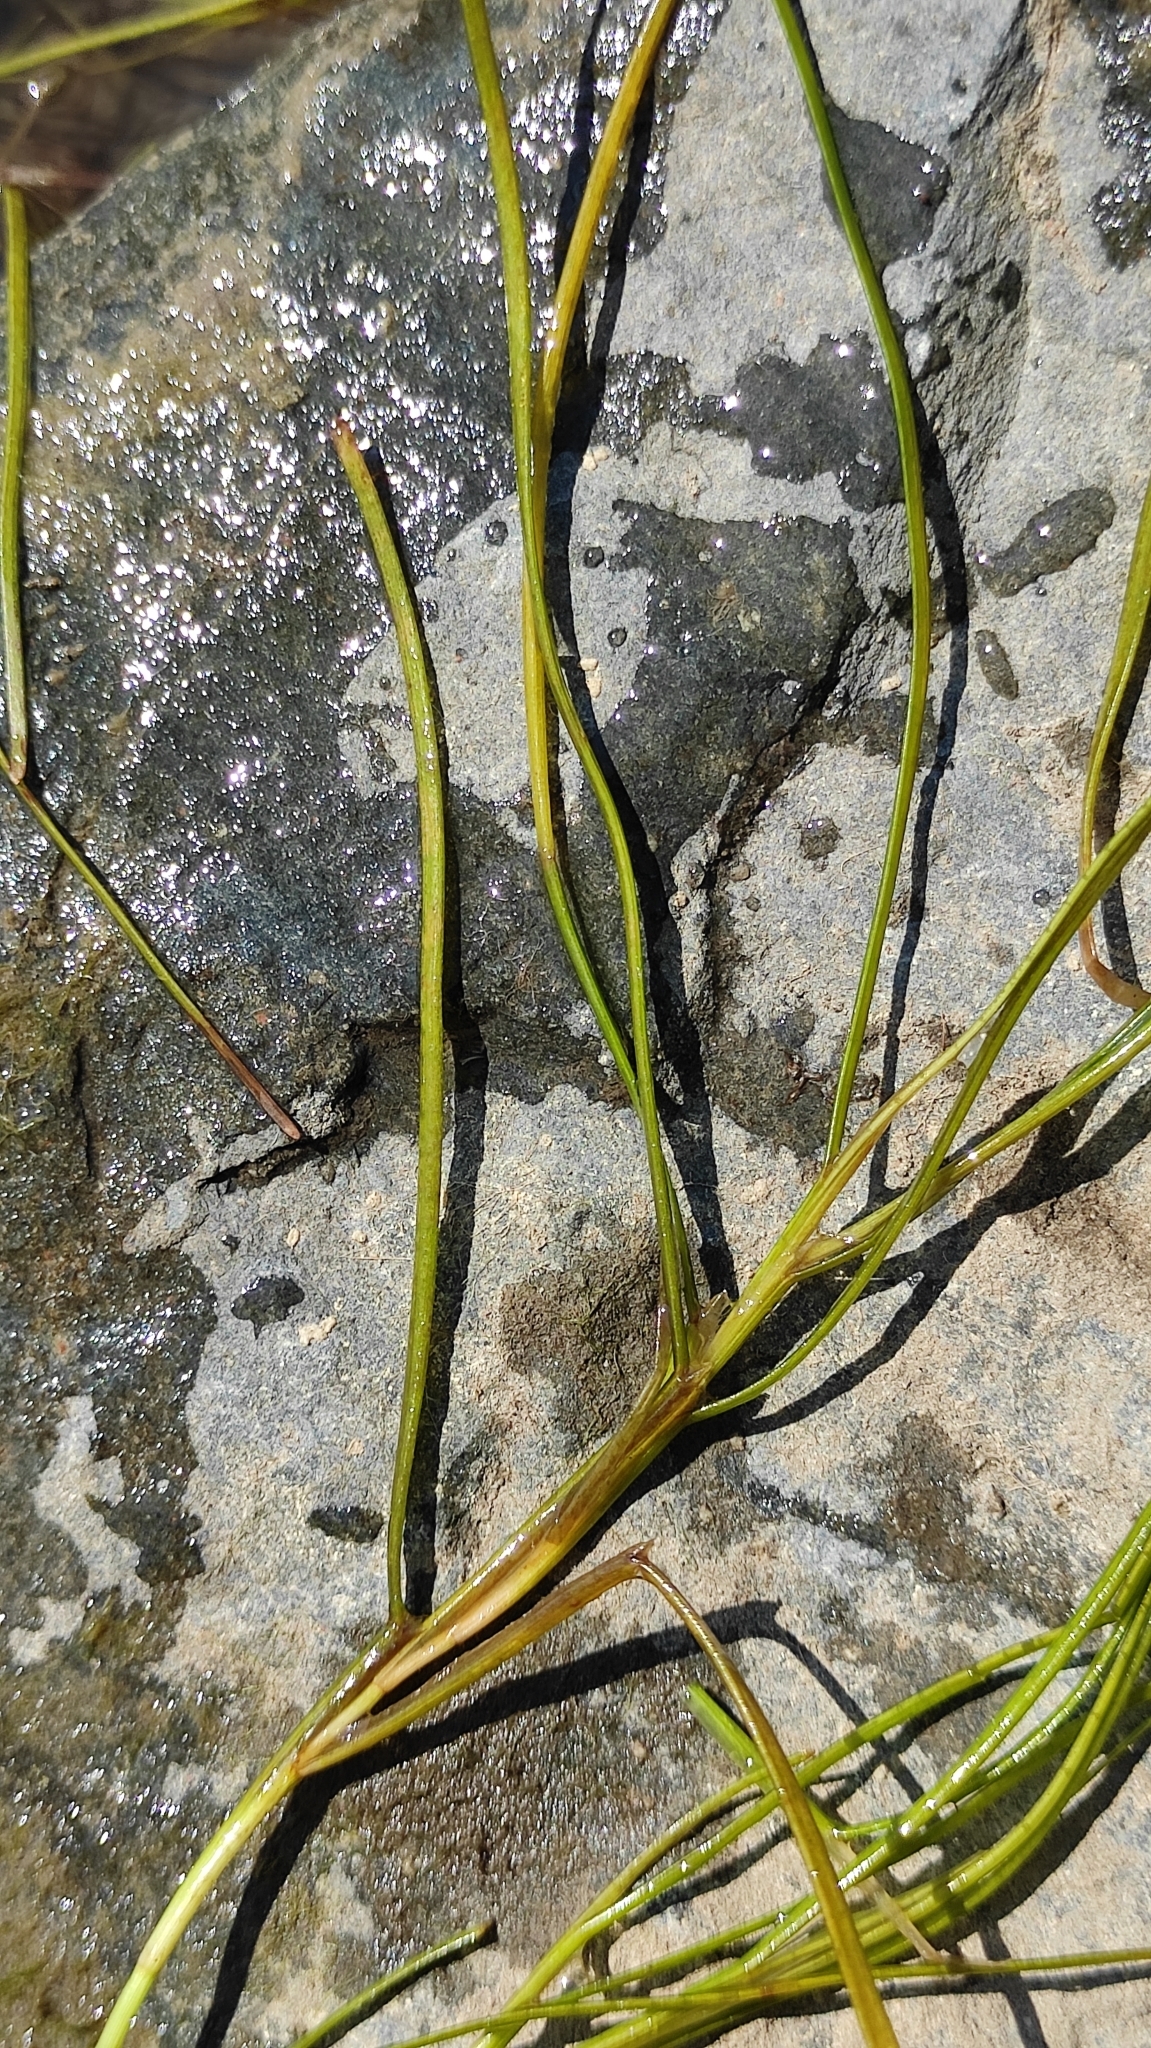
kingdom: Plantae
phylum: Tracheophyta
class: Liliopsida
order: Alismatales
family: Potamogetonaceae
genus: Stuckenia
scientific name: Stuckenia pectinata
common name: Sago pondweed
